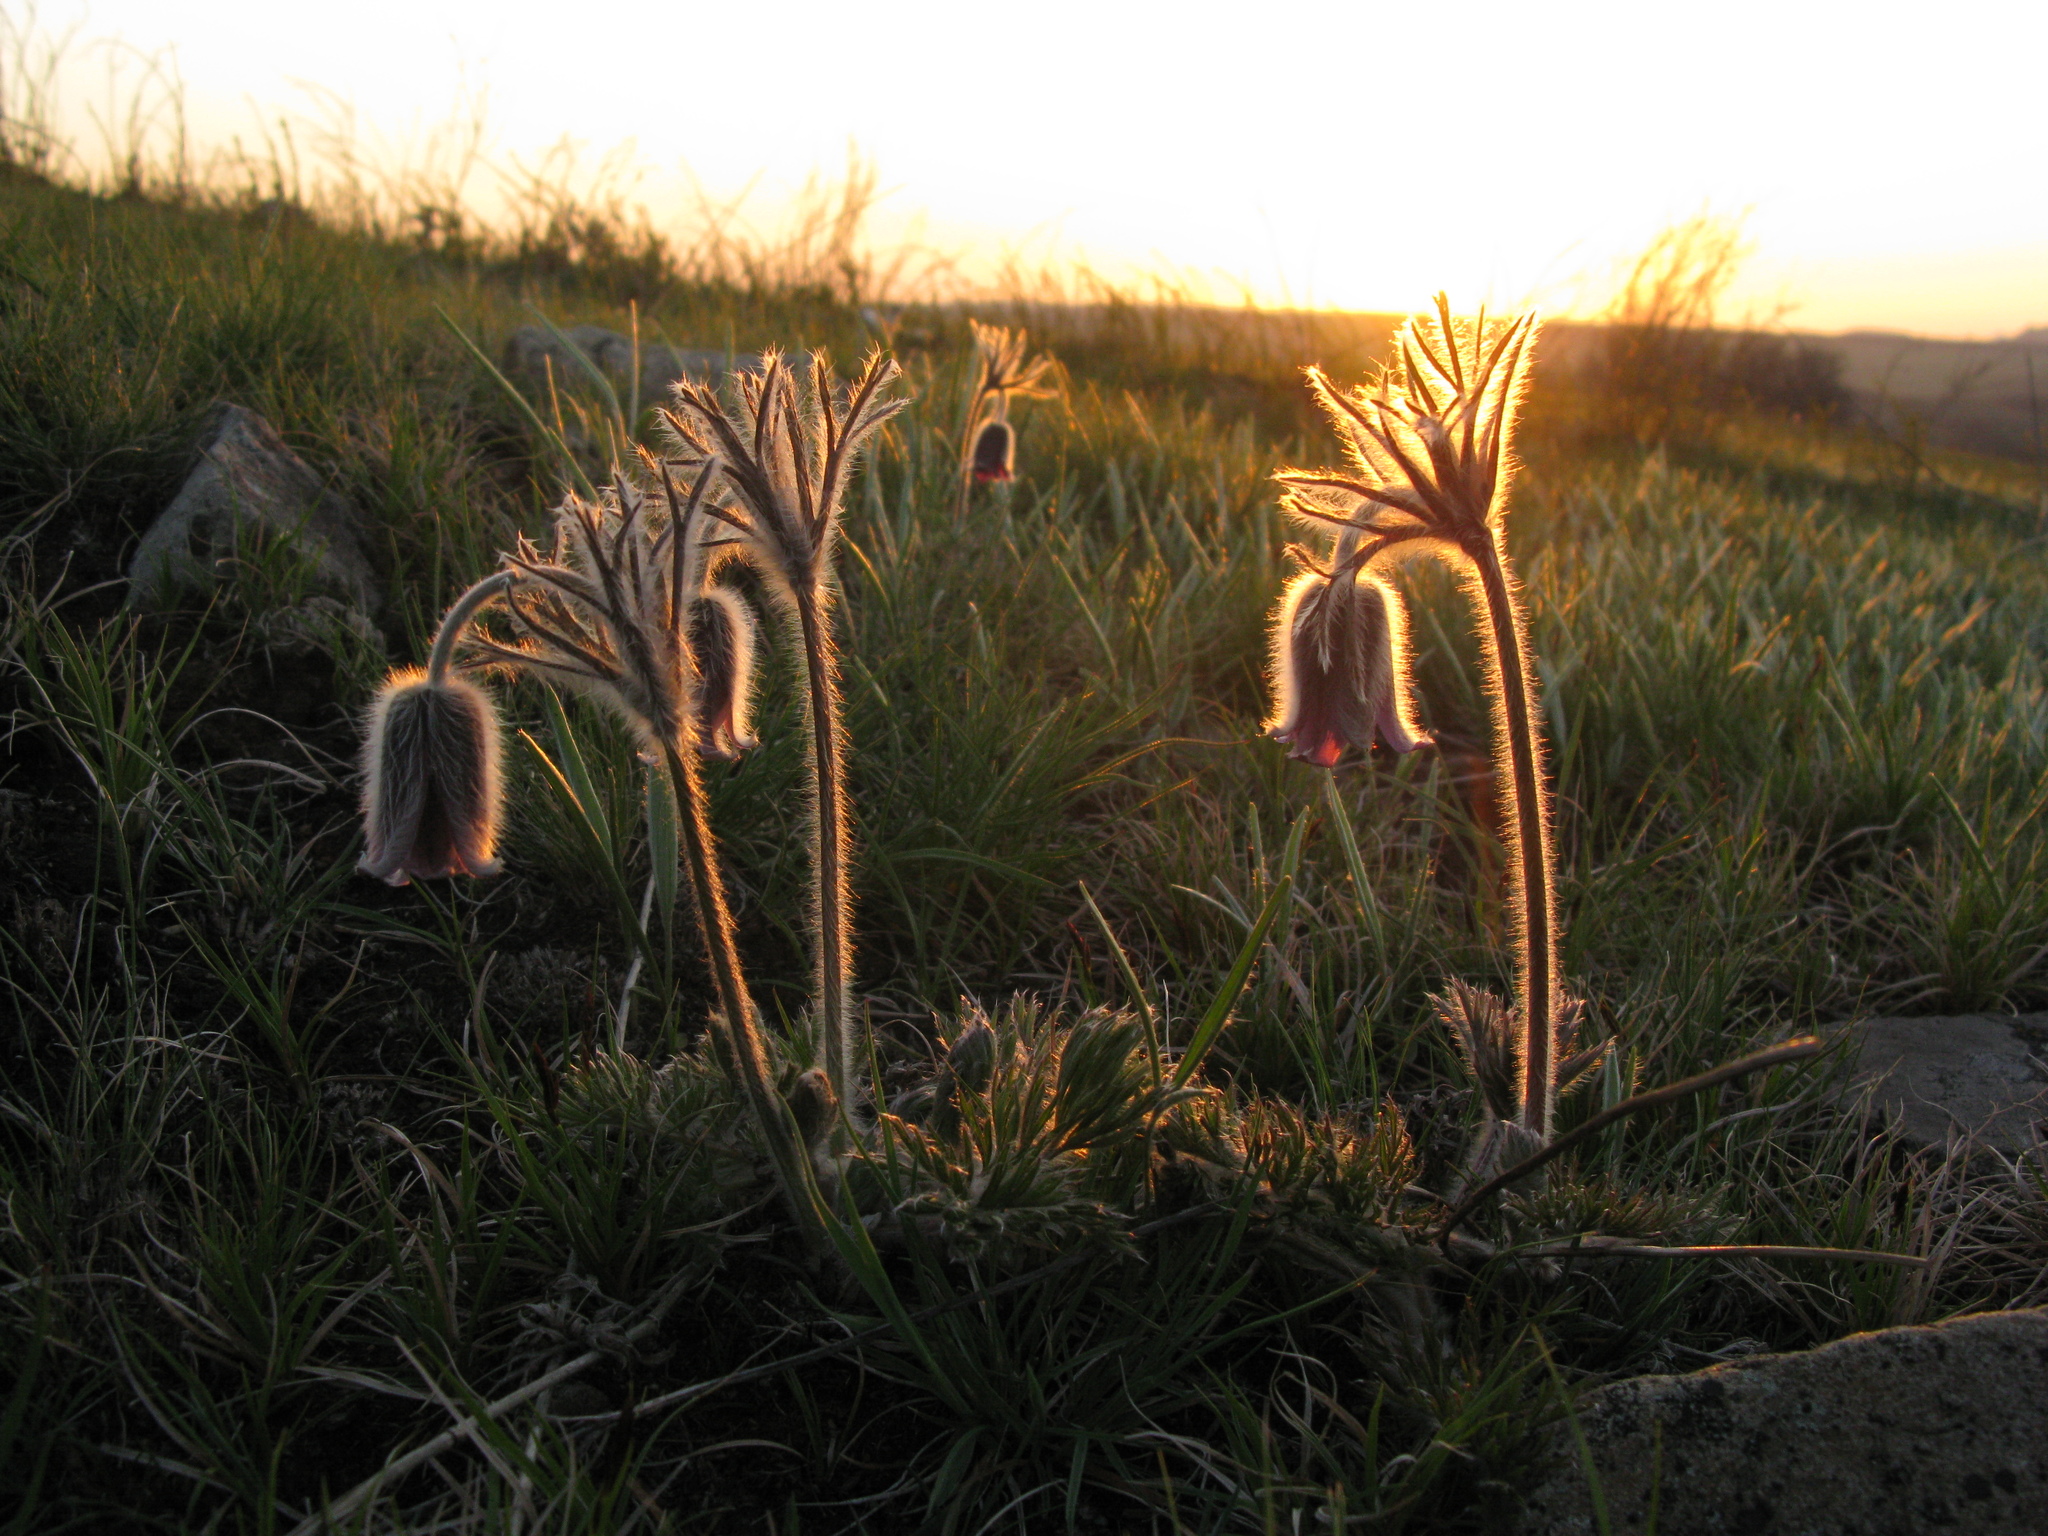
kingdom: Plantae
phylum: Tracheophyta
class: Magnoliopsida
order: Ranunculales
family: Ranunculaceae
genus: Pulsatilla
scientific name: Pulsatilla pratensis
